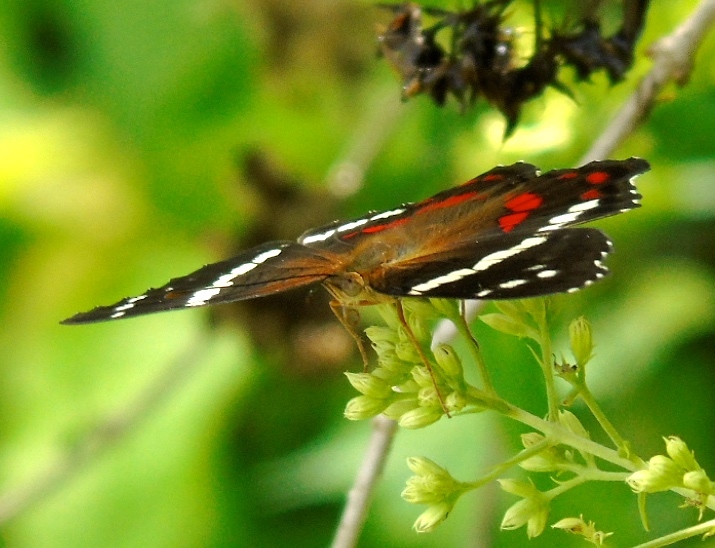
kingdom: Animalia
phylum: Arthropoda
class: Insecta
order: Lepidoptera
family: Nymphalidae
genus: Anartia
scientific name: Anartia fatima
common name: Banded peacock
